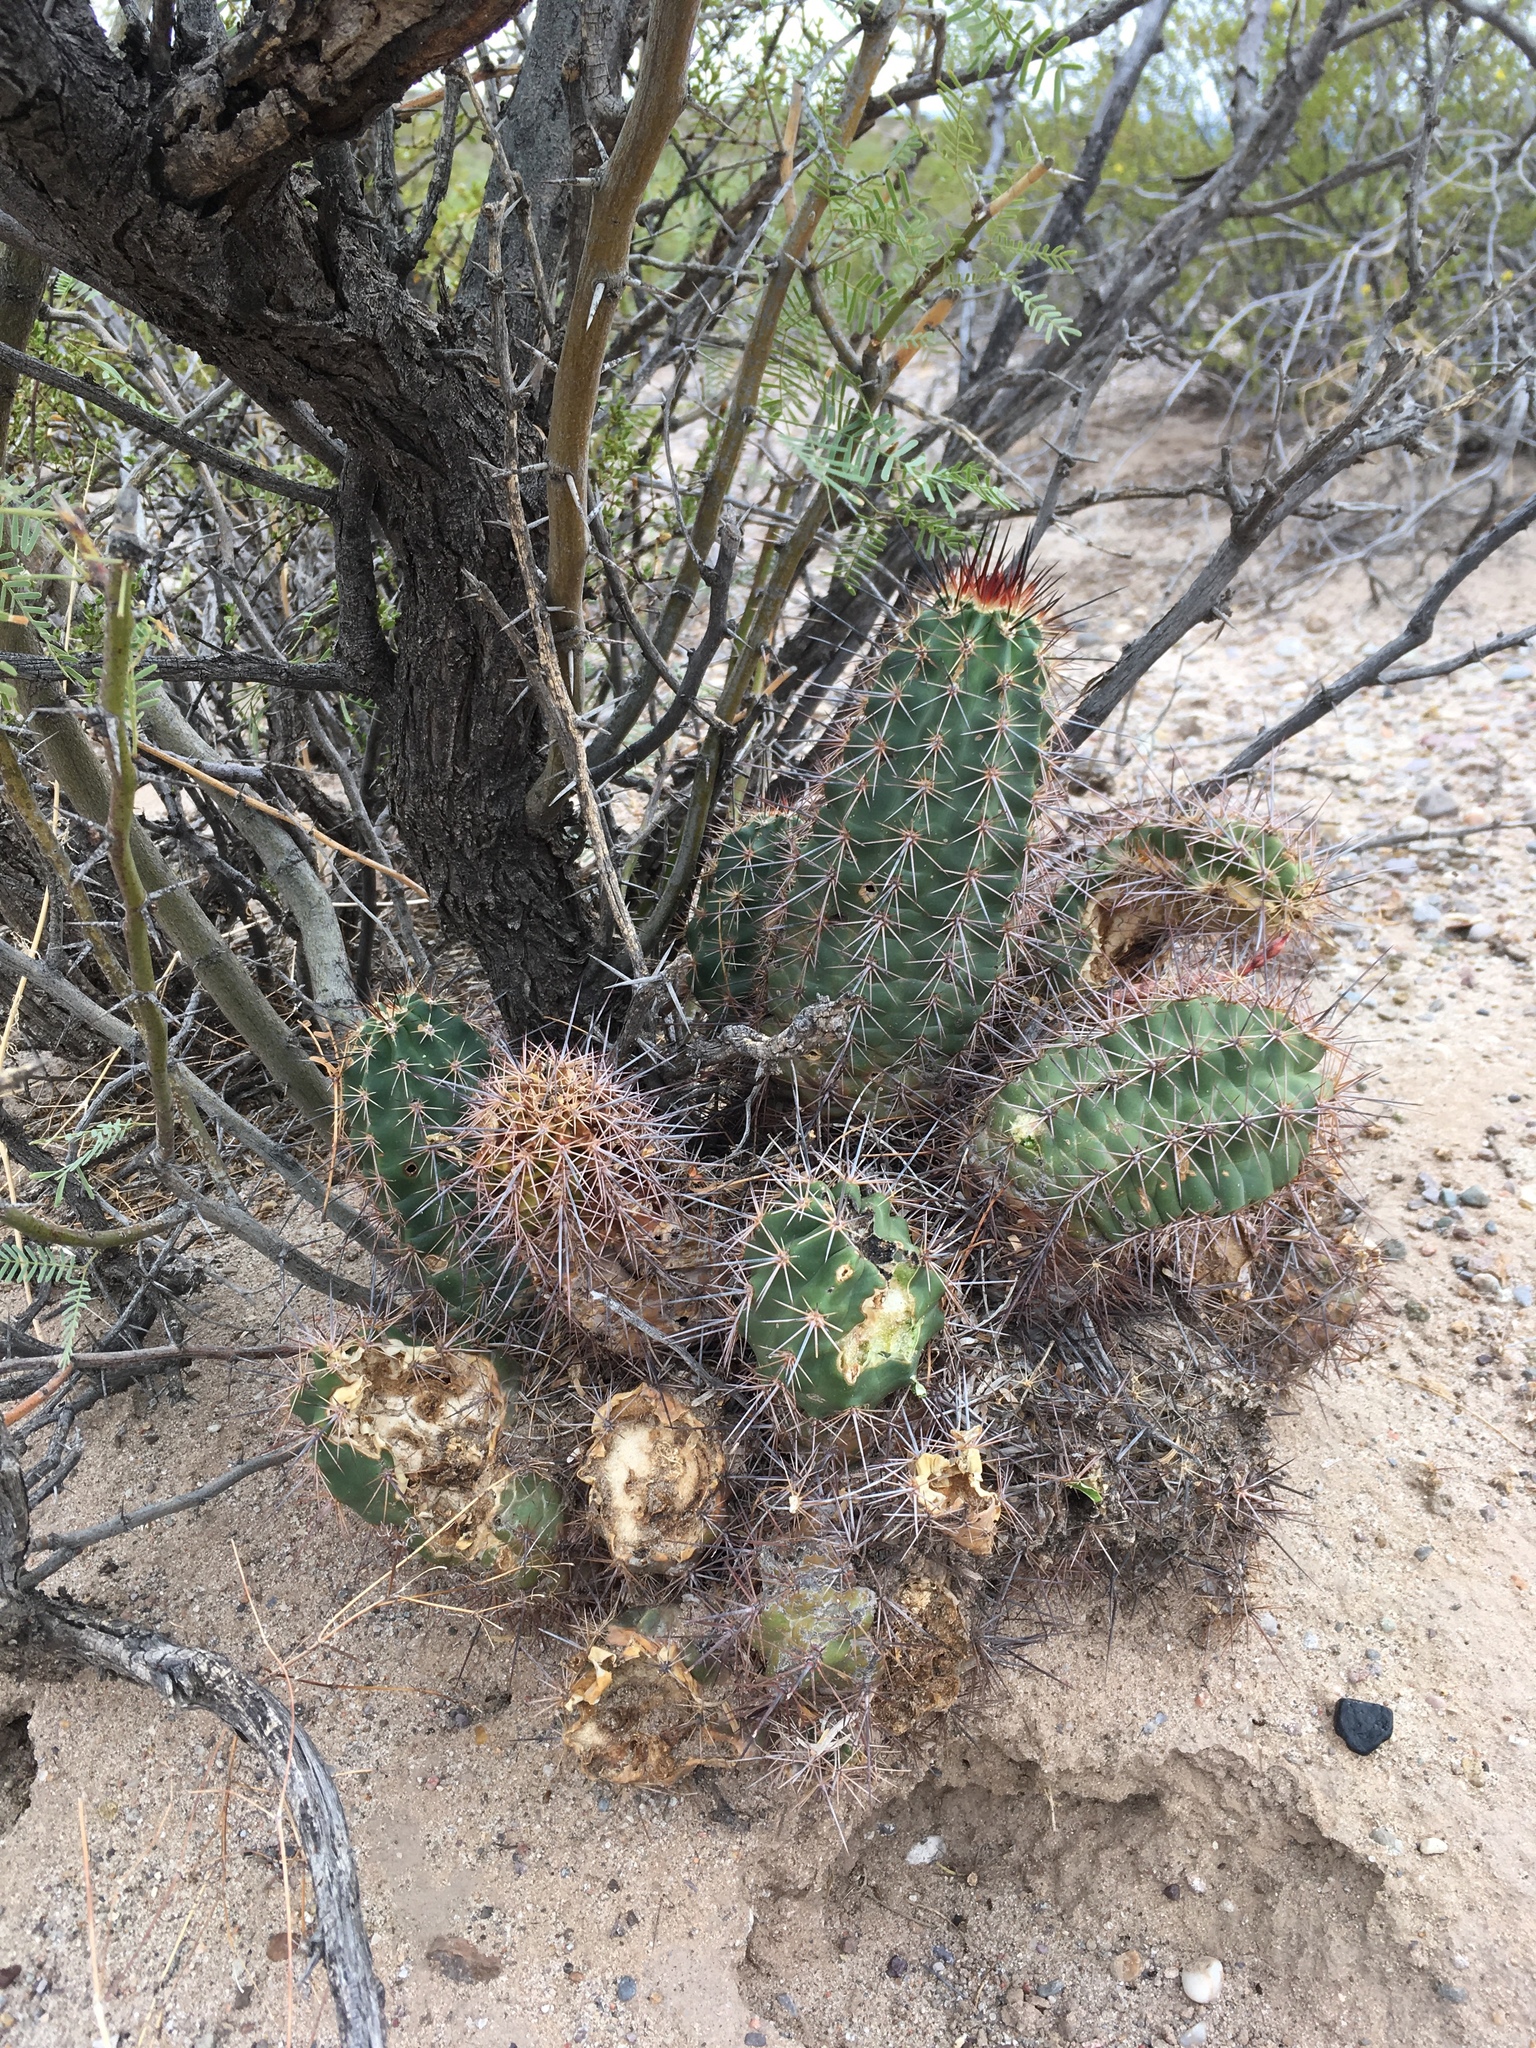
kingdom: Plantae
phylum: Tracheophyta
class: Magnoliopsida
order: Caryophyllales
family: Cactaceae
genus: Echinocereus
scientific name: Echinocereus coccineus
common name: Scarlet hedgehog cactus
